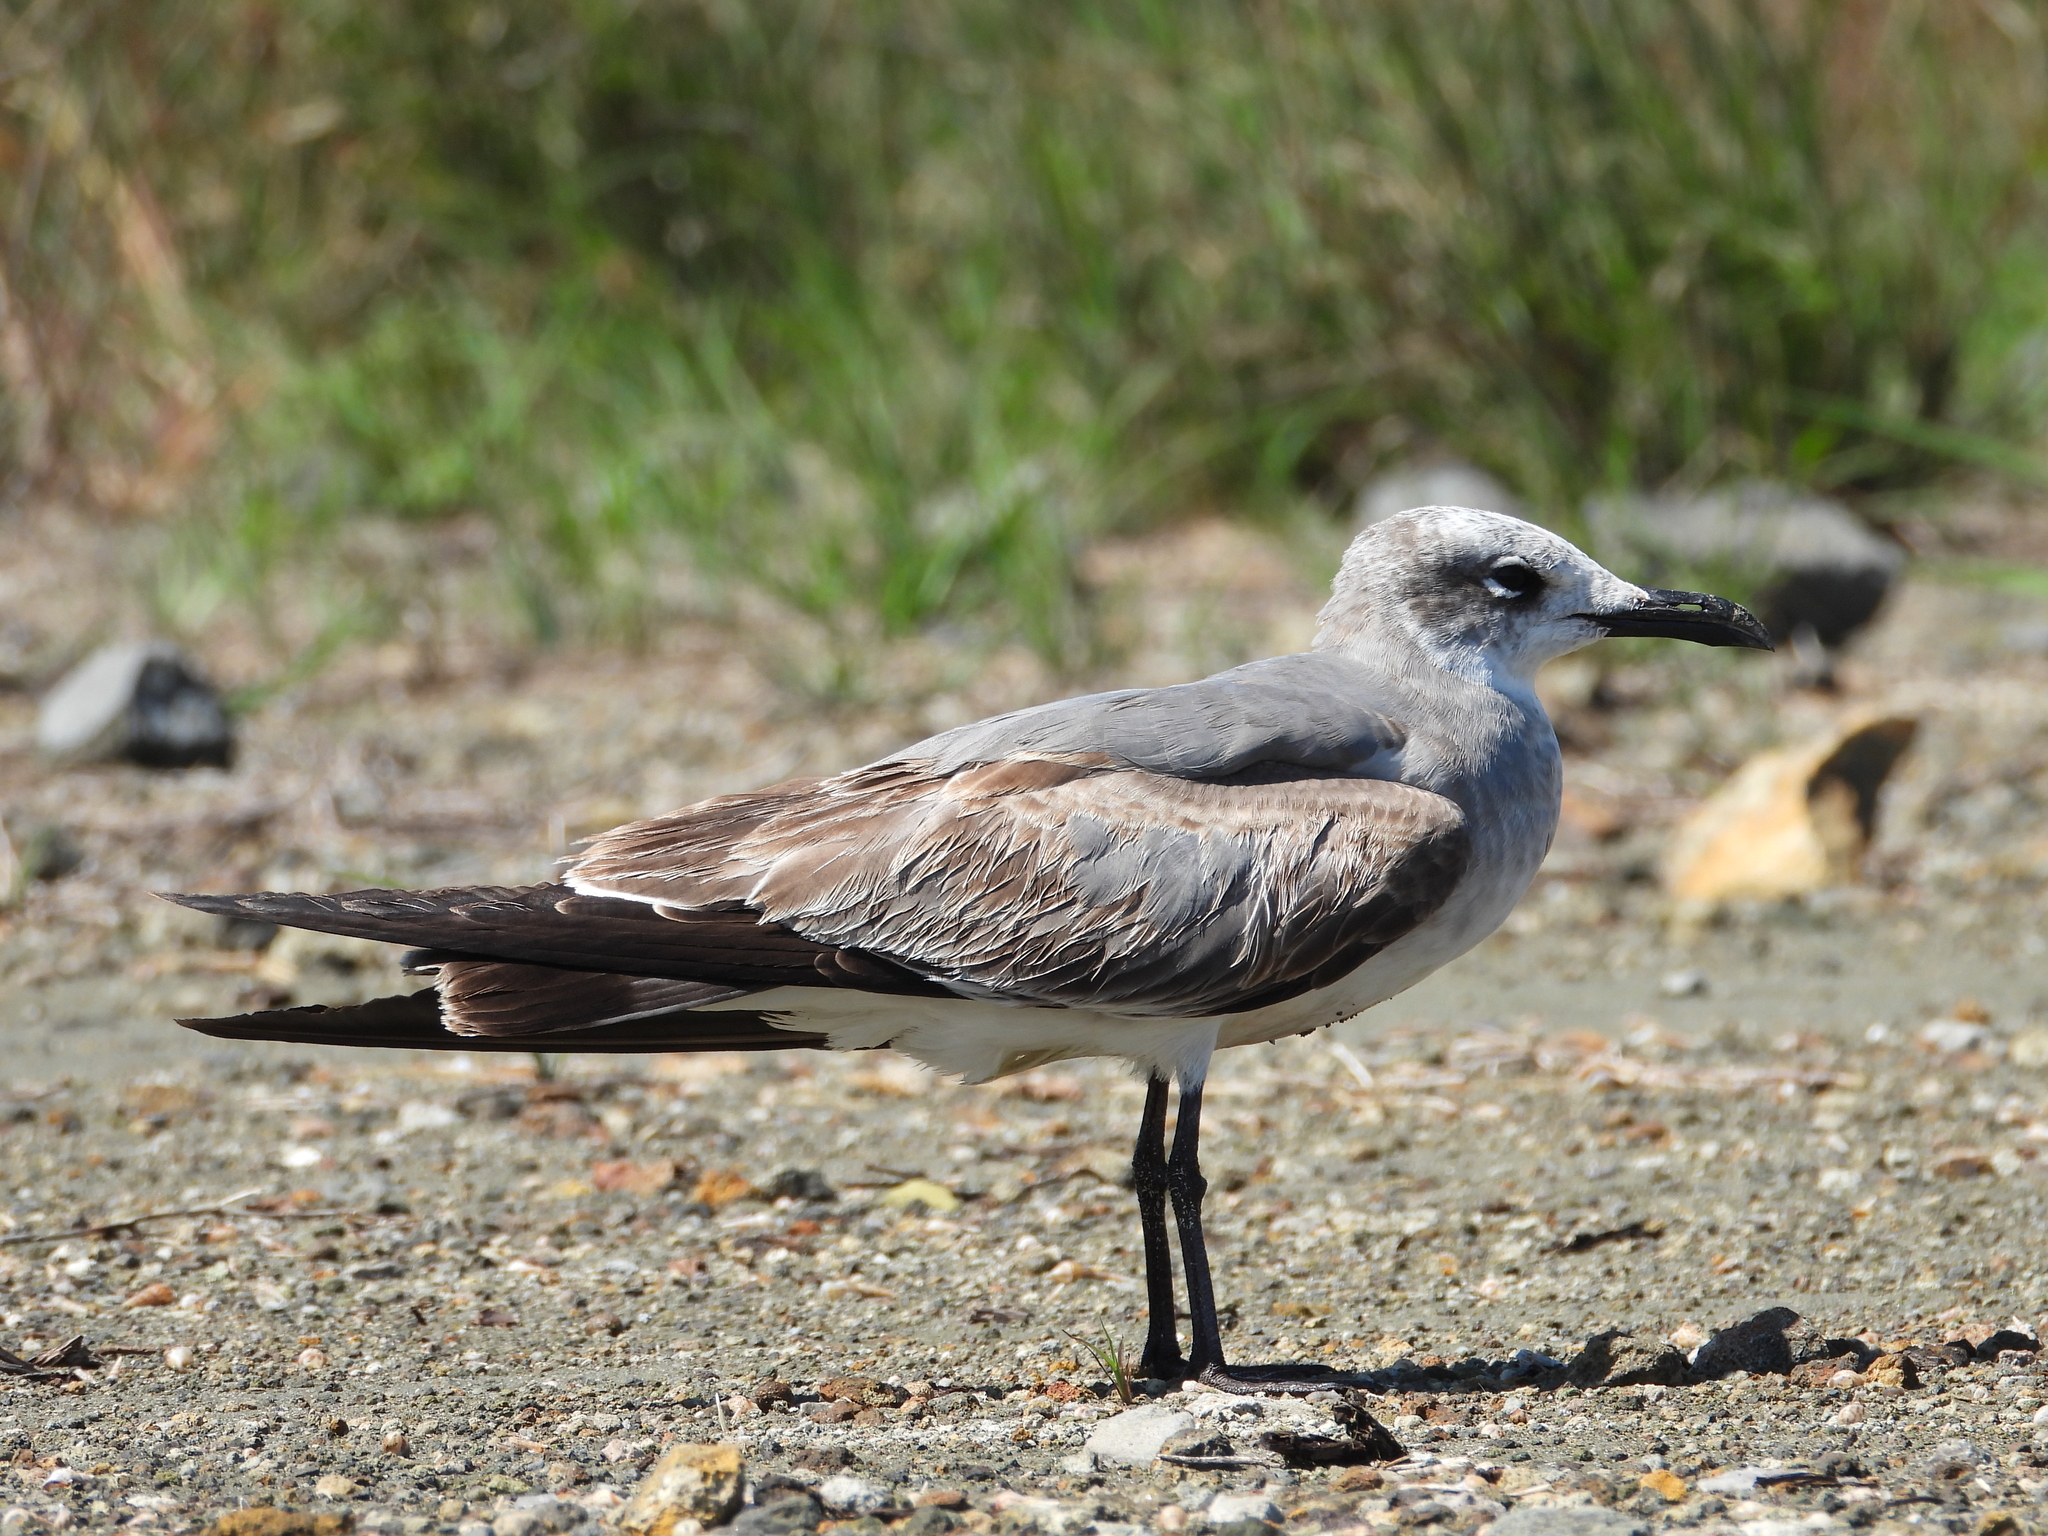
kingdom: Animalia
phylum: Chordata
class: Aves
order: Charadriiformes
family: Laridae
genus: Leucophaeus
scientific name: Leucophaeus atricilla
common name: Laughing gull
